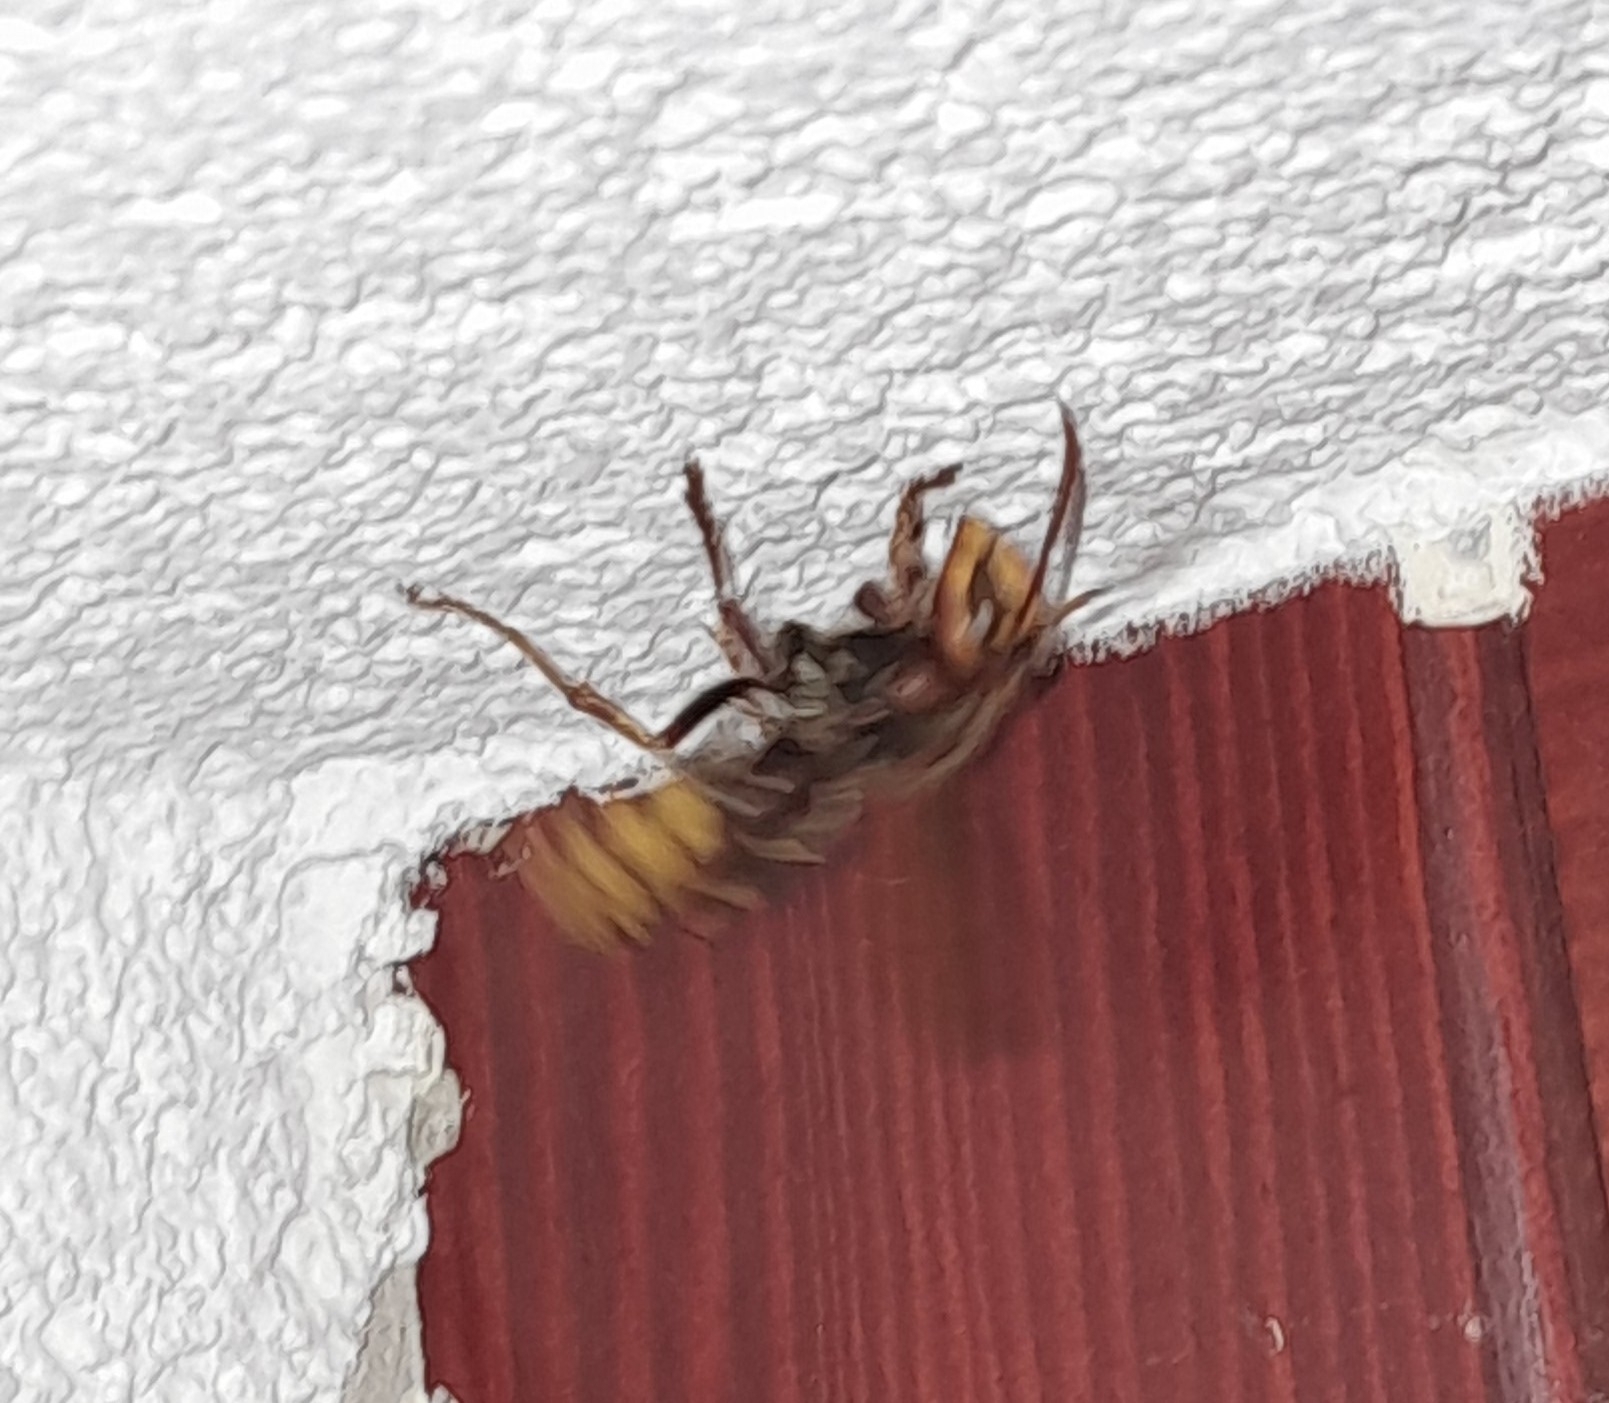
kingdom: Animalia
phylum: Arthropoda
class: Insecta
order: Hymenoptera
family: Vespidae
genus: Vespa
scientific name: Vespa crabro
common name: Hornet
